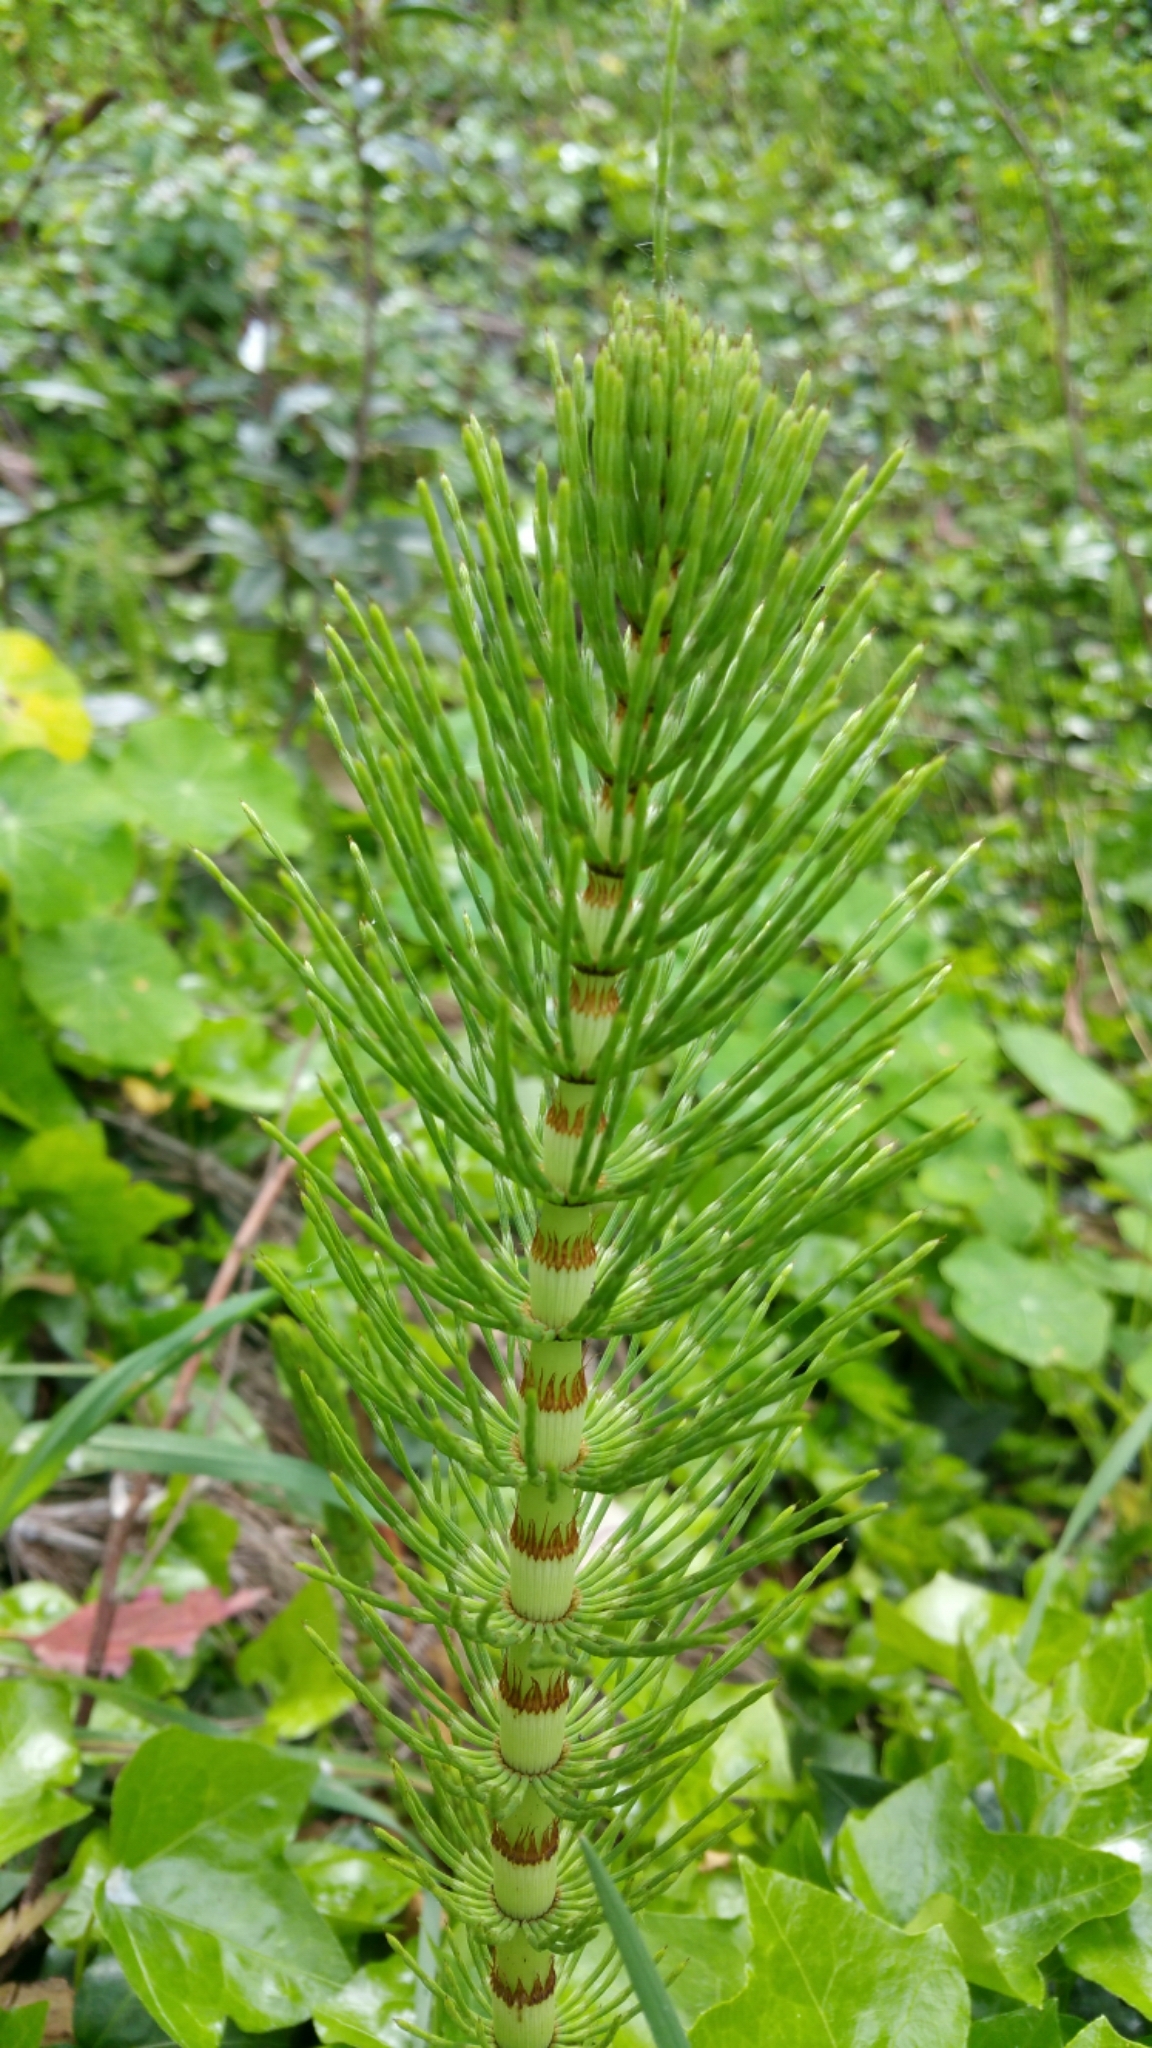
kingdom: Plantae
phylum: Tracheophyta
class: Polypodiopsida
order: Equisetales
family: Equisetaceae
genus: Equisetum
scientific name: Equisetum braunii
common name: Braun's horsetail
